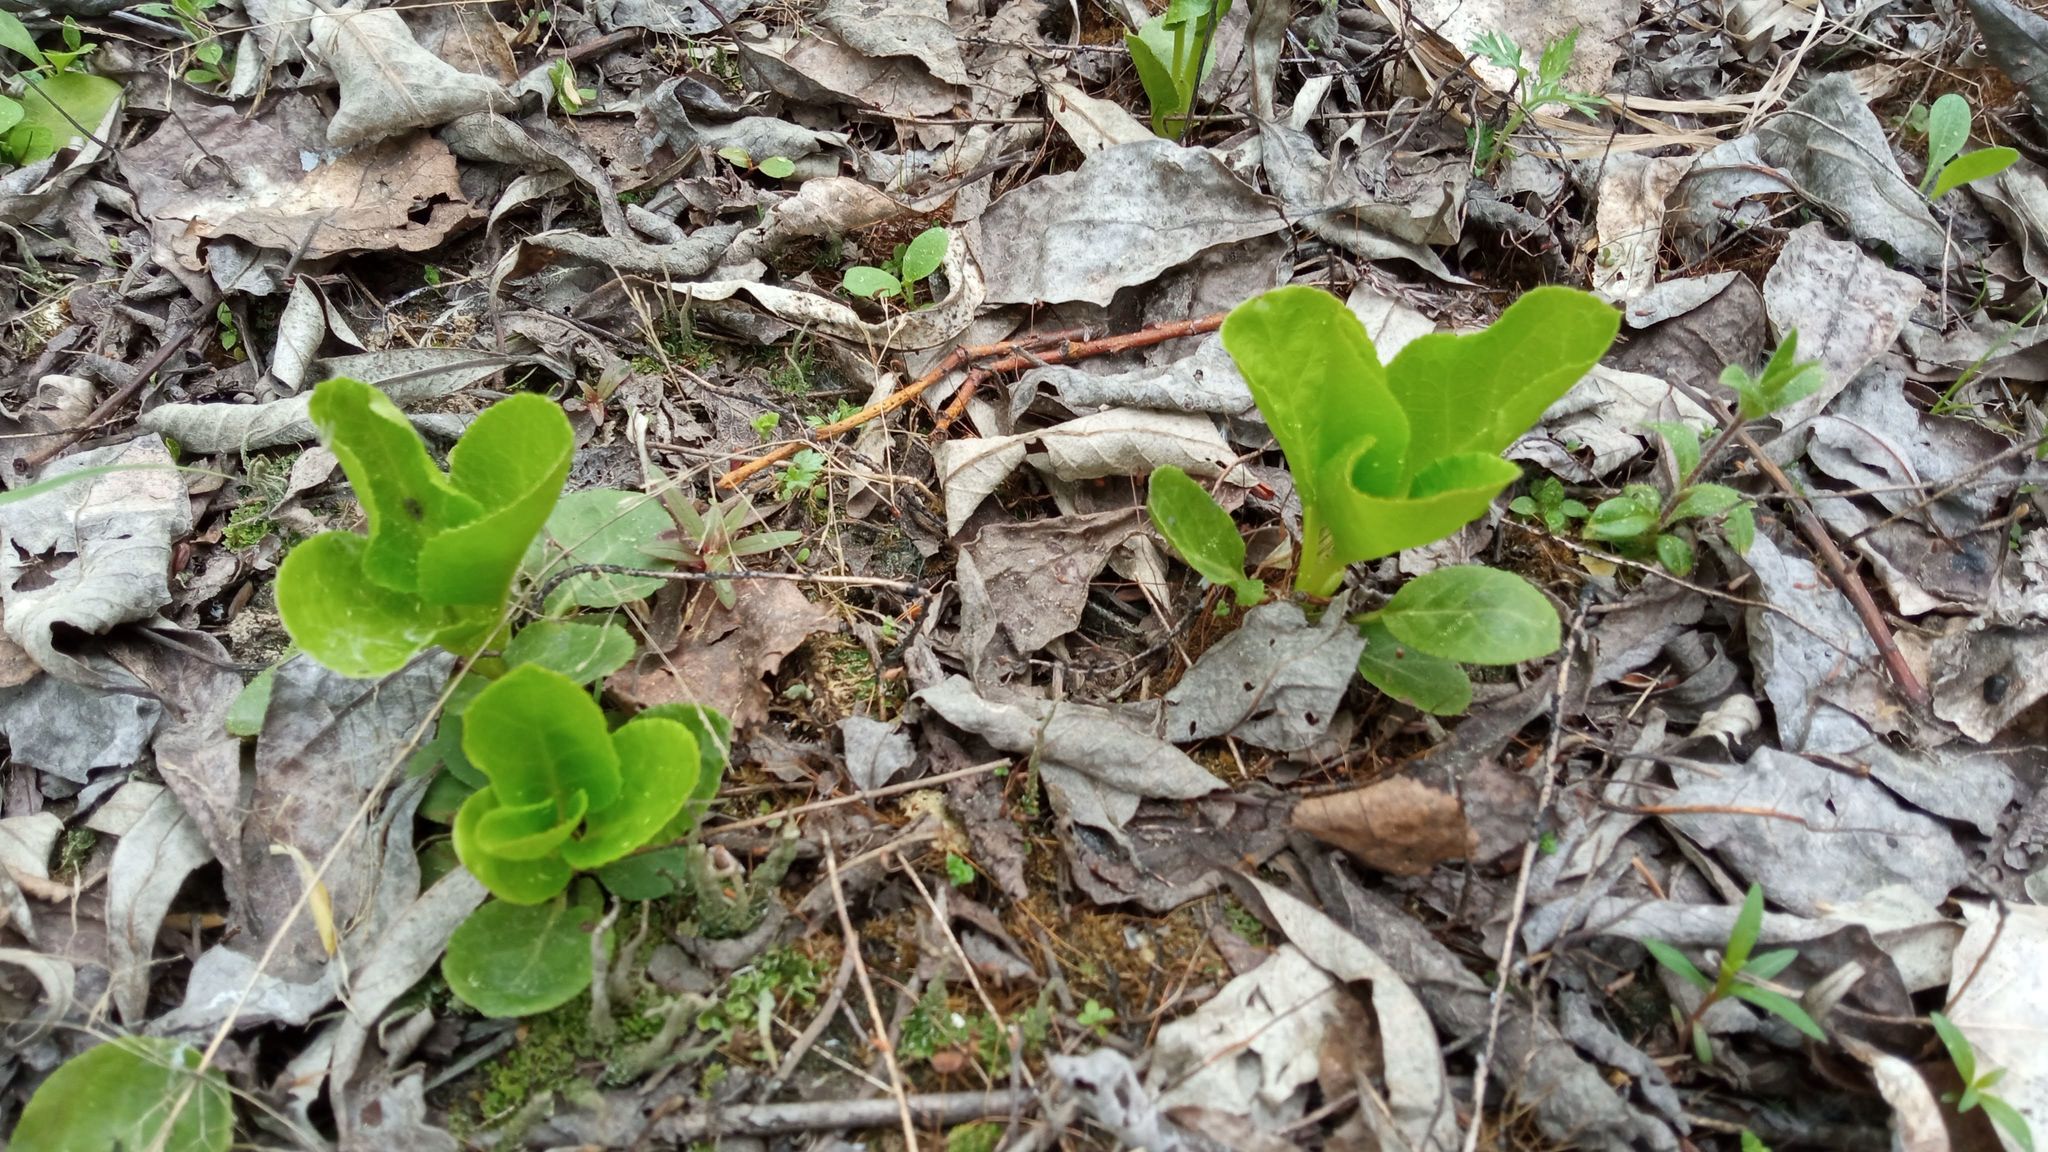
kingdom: Plantae
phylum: Tracheophyta
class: Magnoliopsida
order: Ericales
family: Ericaceae
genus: Pyrola
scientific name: Pyrola minor
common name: Common wintergreen
